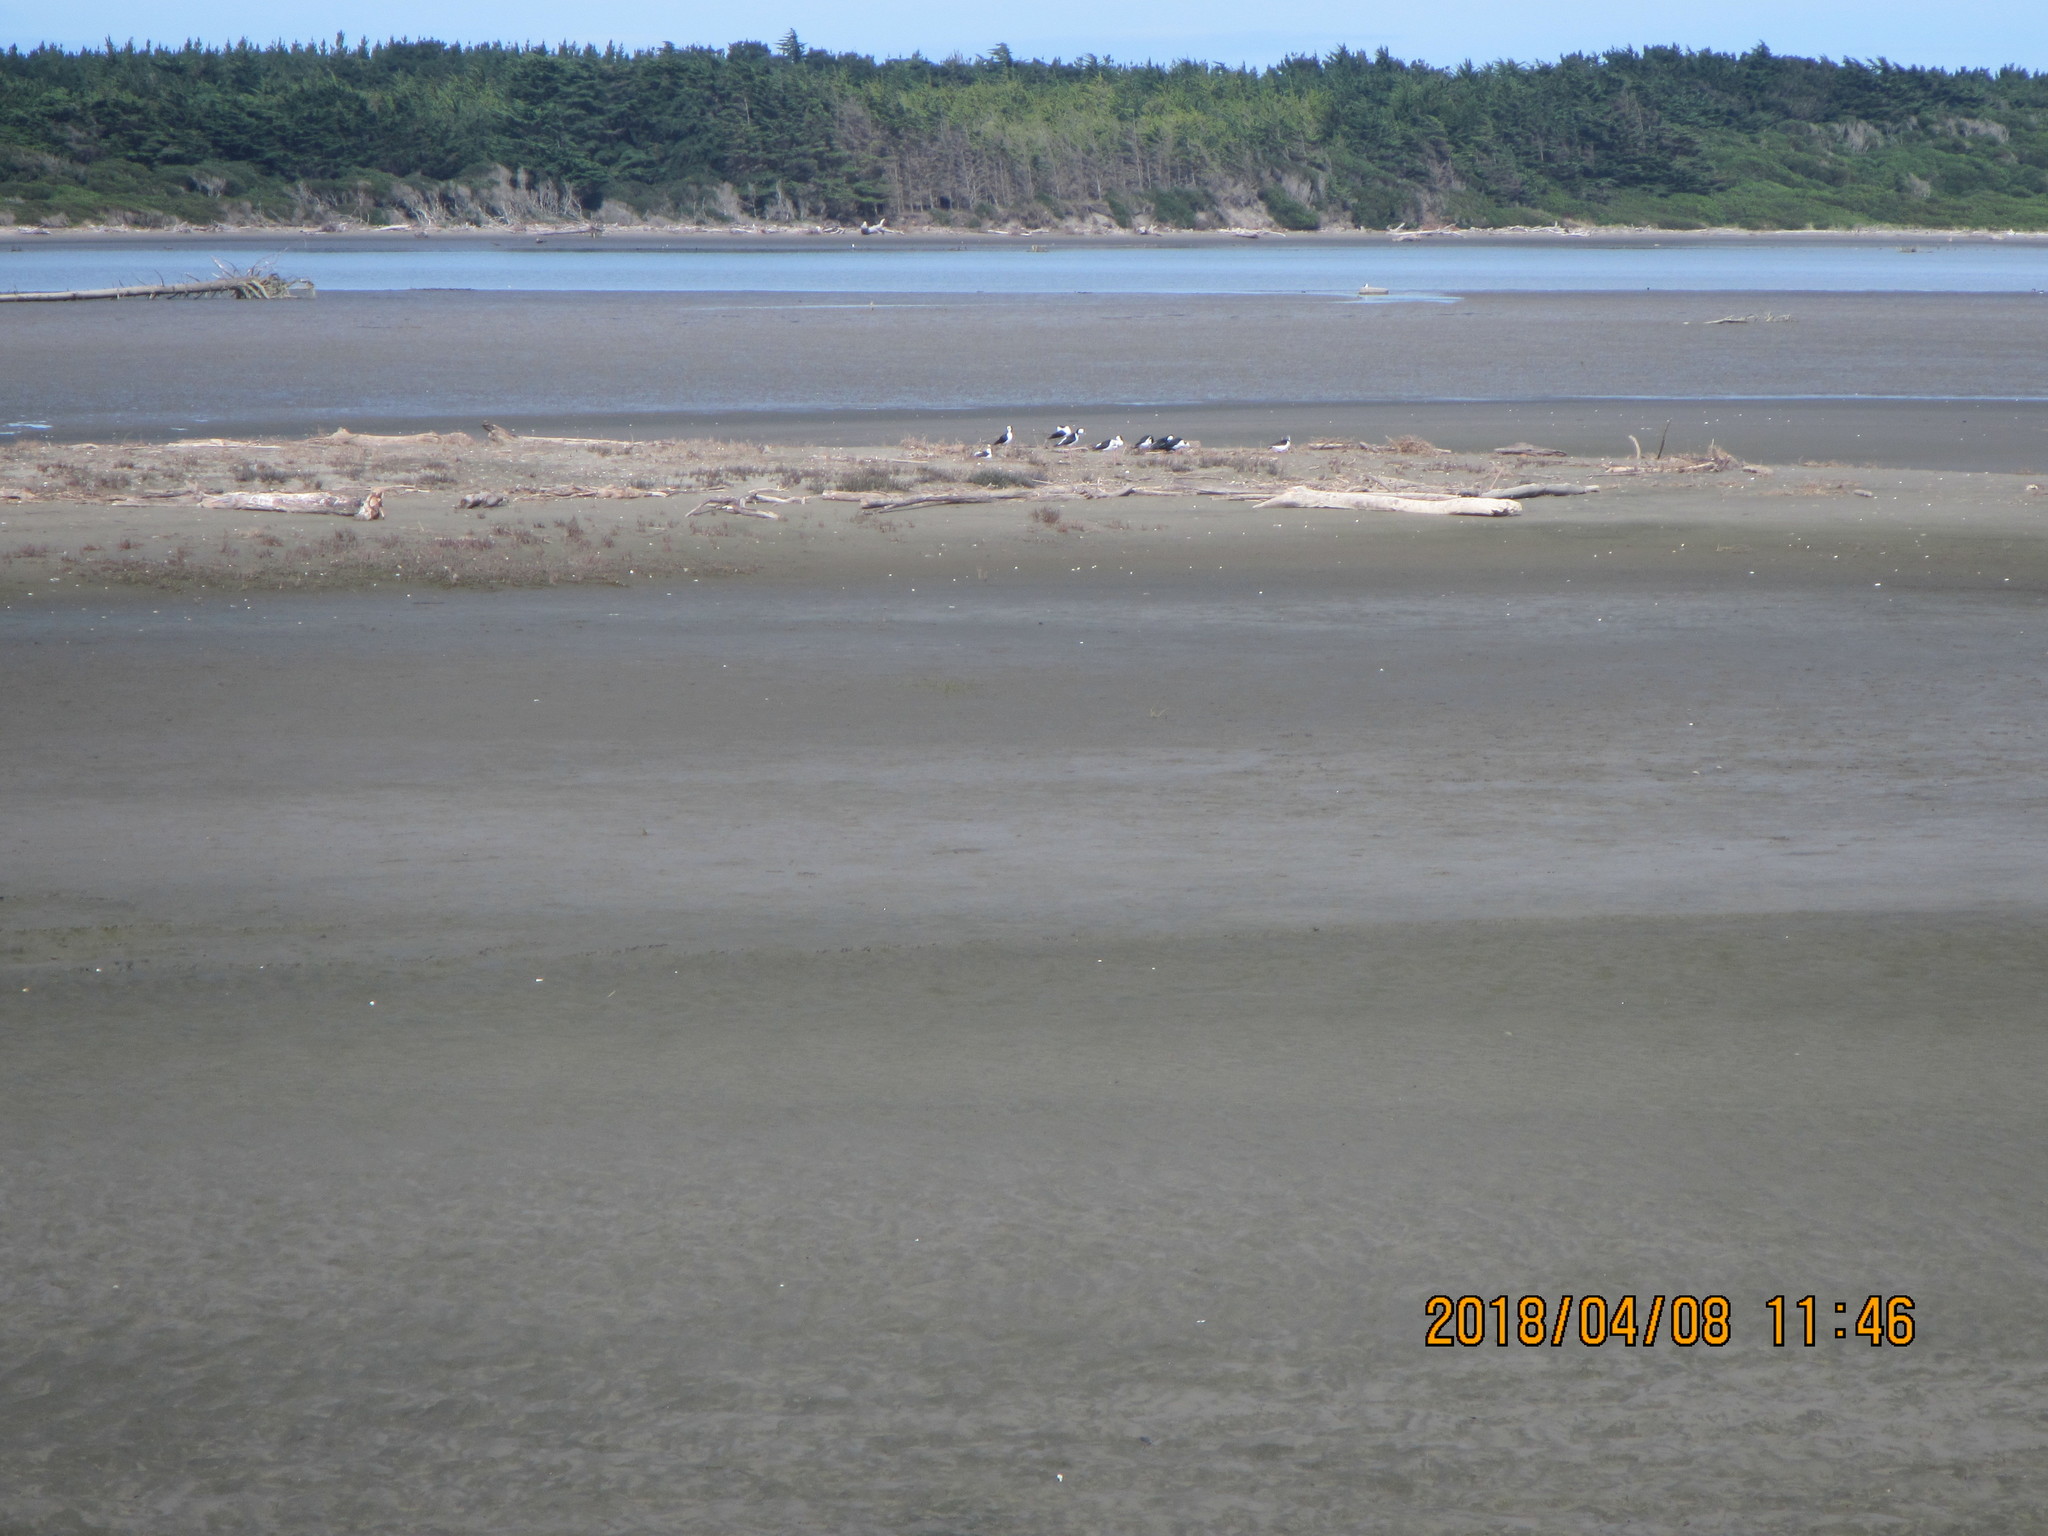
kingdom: Animalia
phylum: Chordata
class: Aves
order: Charadriiformes
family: Recurvirostridae
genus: Himantopus
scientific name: Himantopus leucocephalus
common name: White-headed stilt
